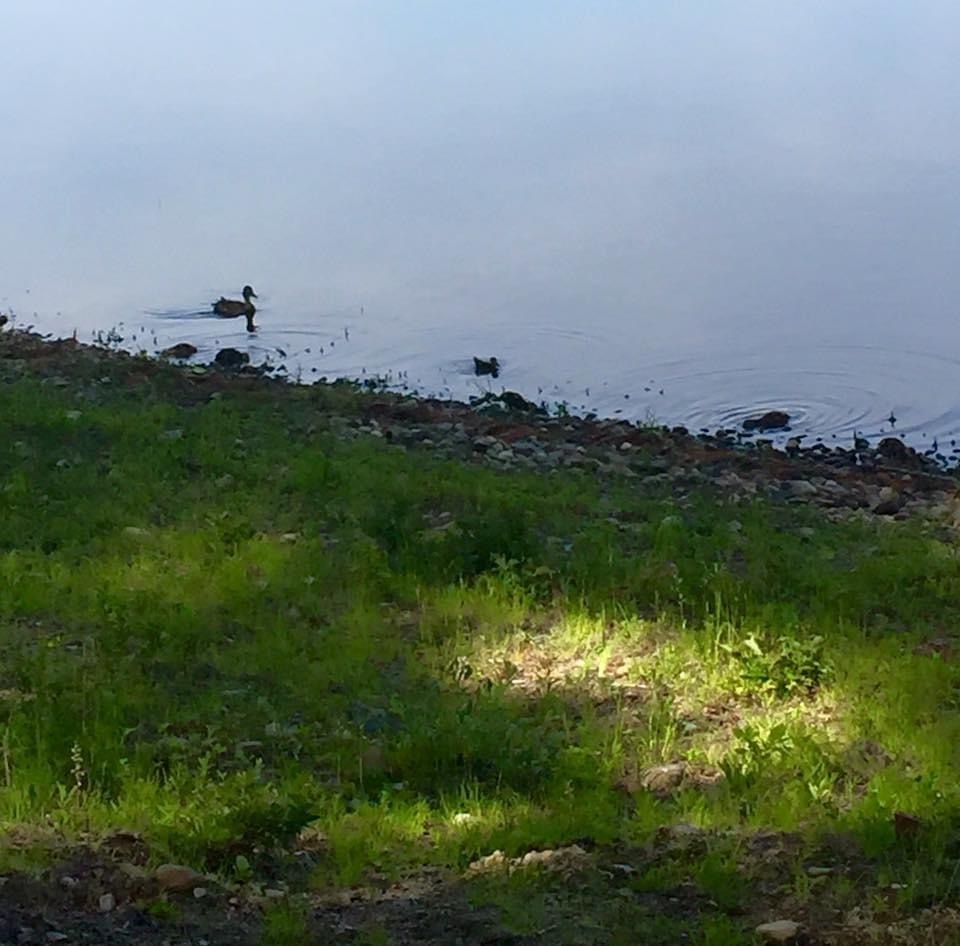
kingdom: Animalia
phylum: Chordata
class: Aves
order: Anseriformes
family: Anatidae
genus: Anas
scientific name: Anas platyrhynchos
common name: Mallard
